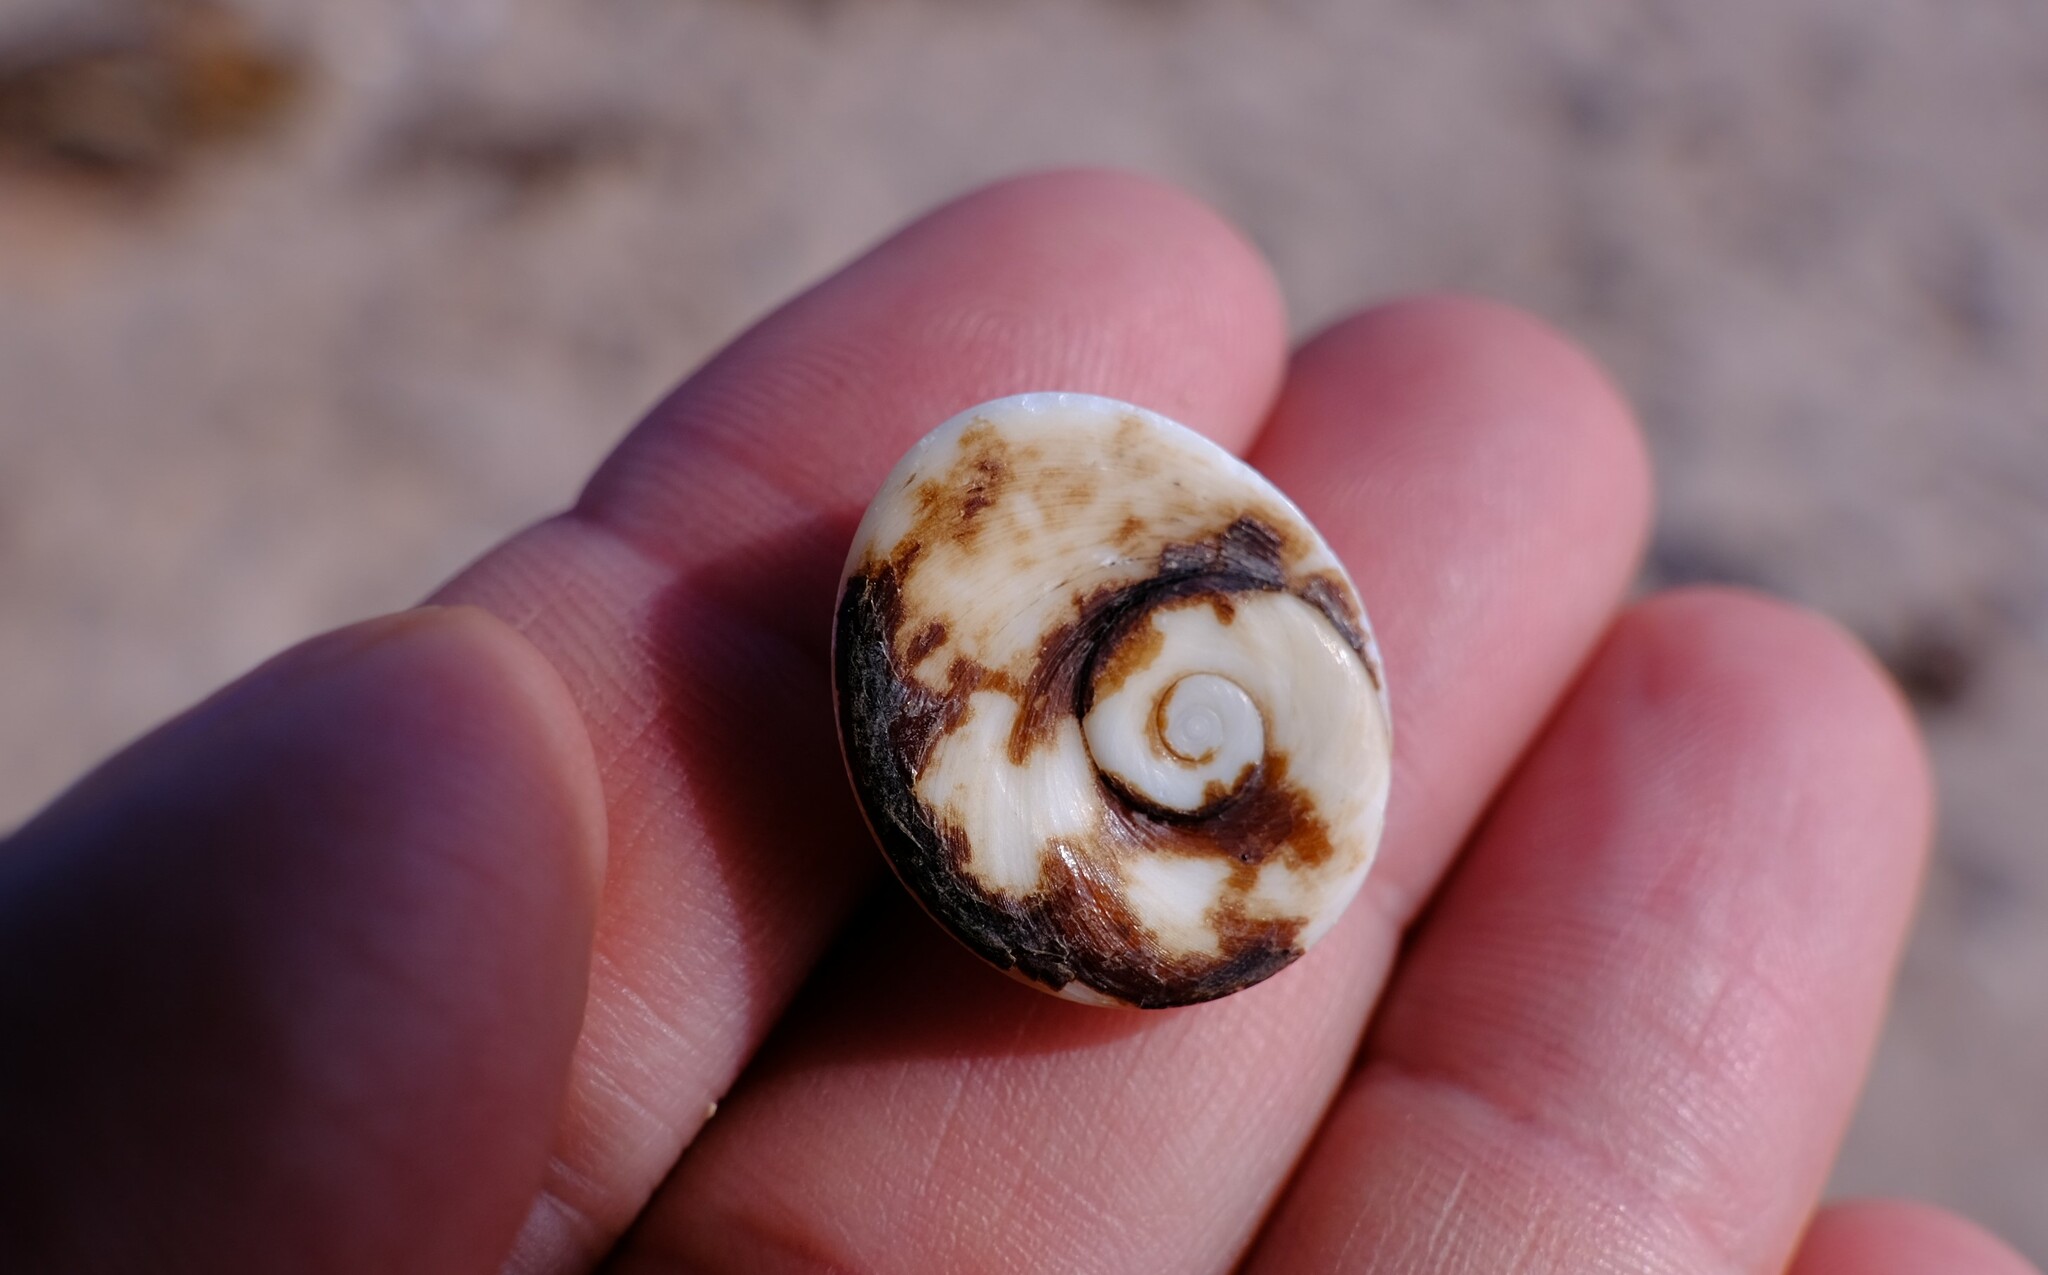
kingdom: Animalia
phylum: Mollusca
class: Gastropoda
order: Trochida
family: Turbinidae
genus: Turbo
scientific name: Turbo kenwilliamsi
